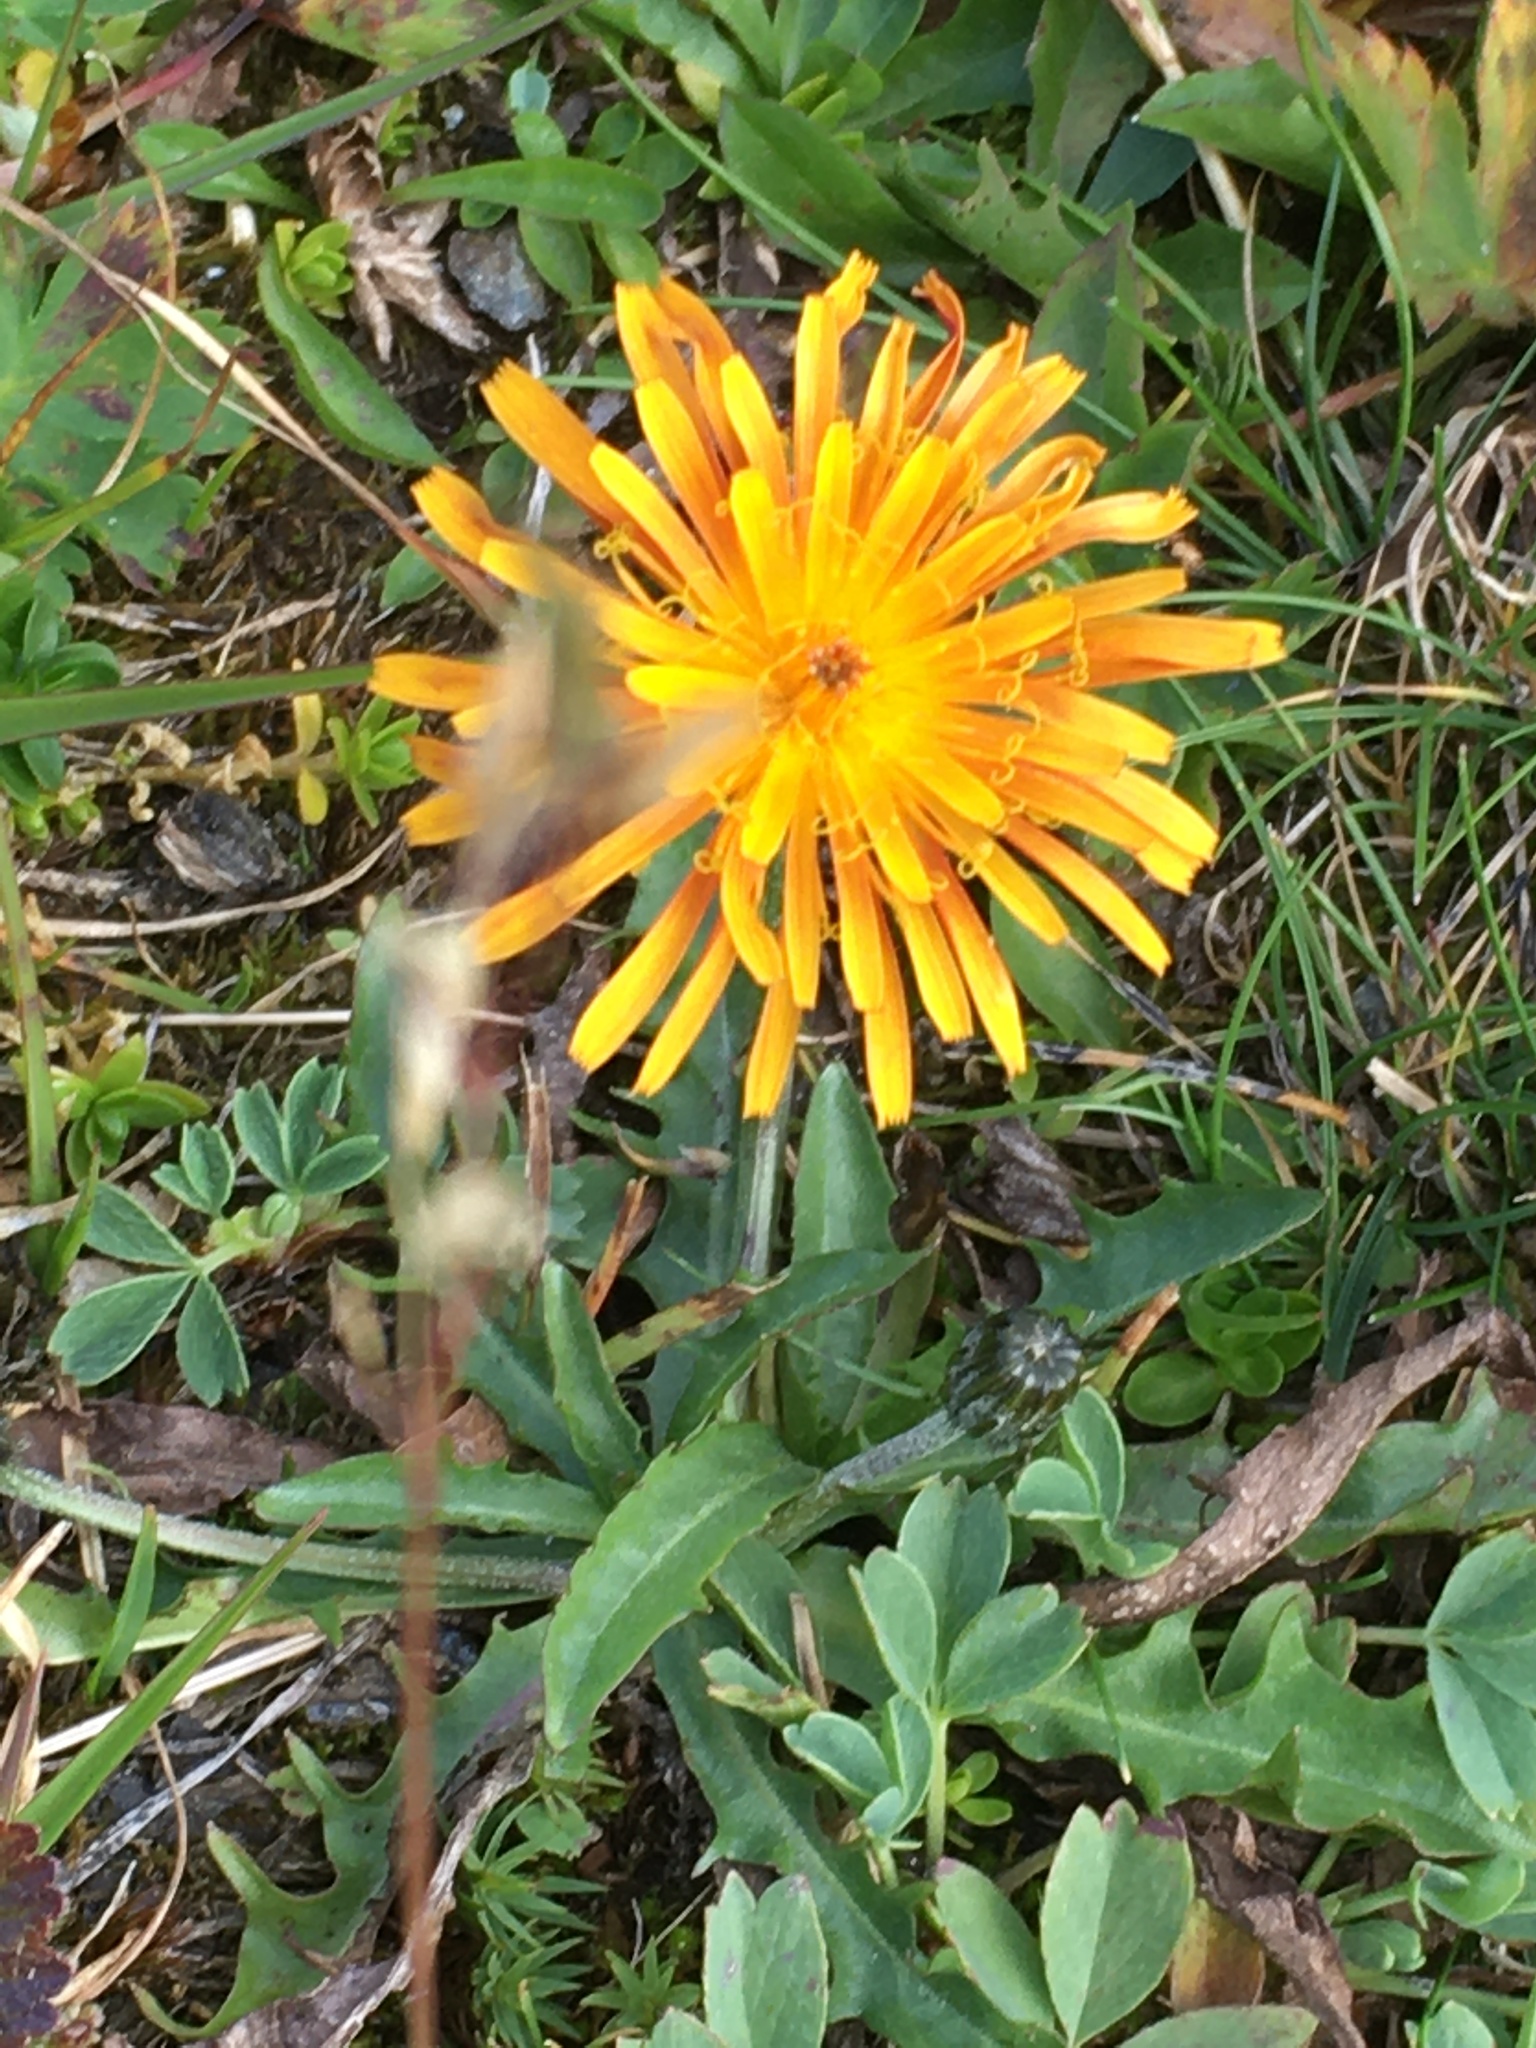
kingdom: Plantae
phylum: Tracheophyta
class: Magnoliopsida
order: Asterales
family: Asteraceae
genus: Crepis
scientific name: Crepis aurea
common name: Golden hawk's-beard
